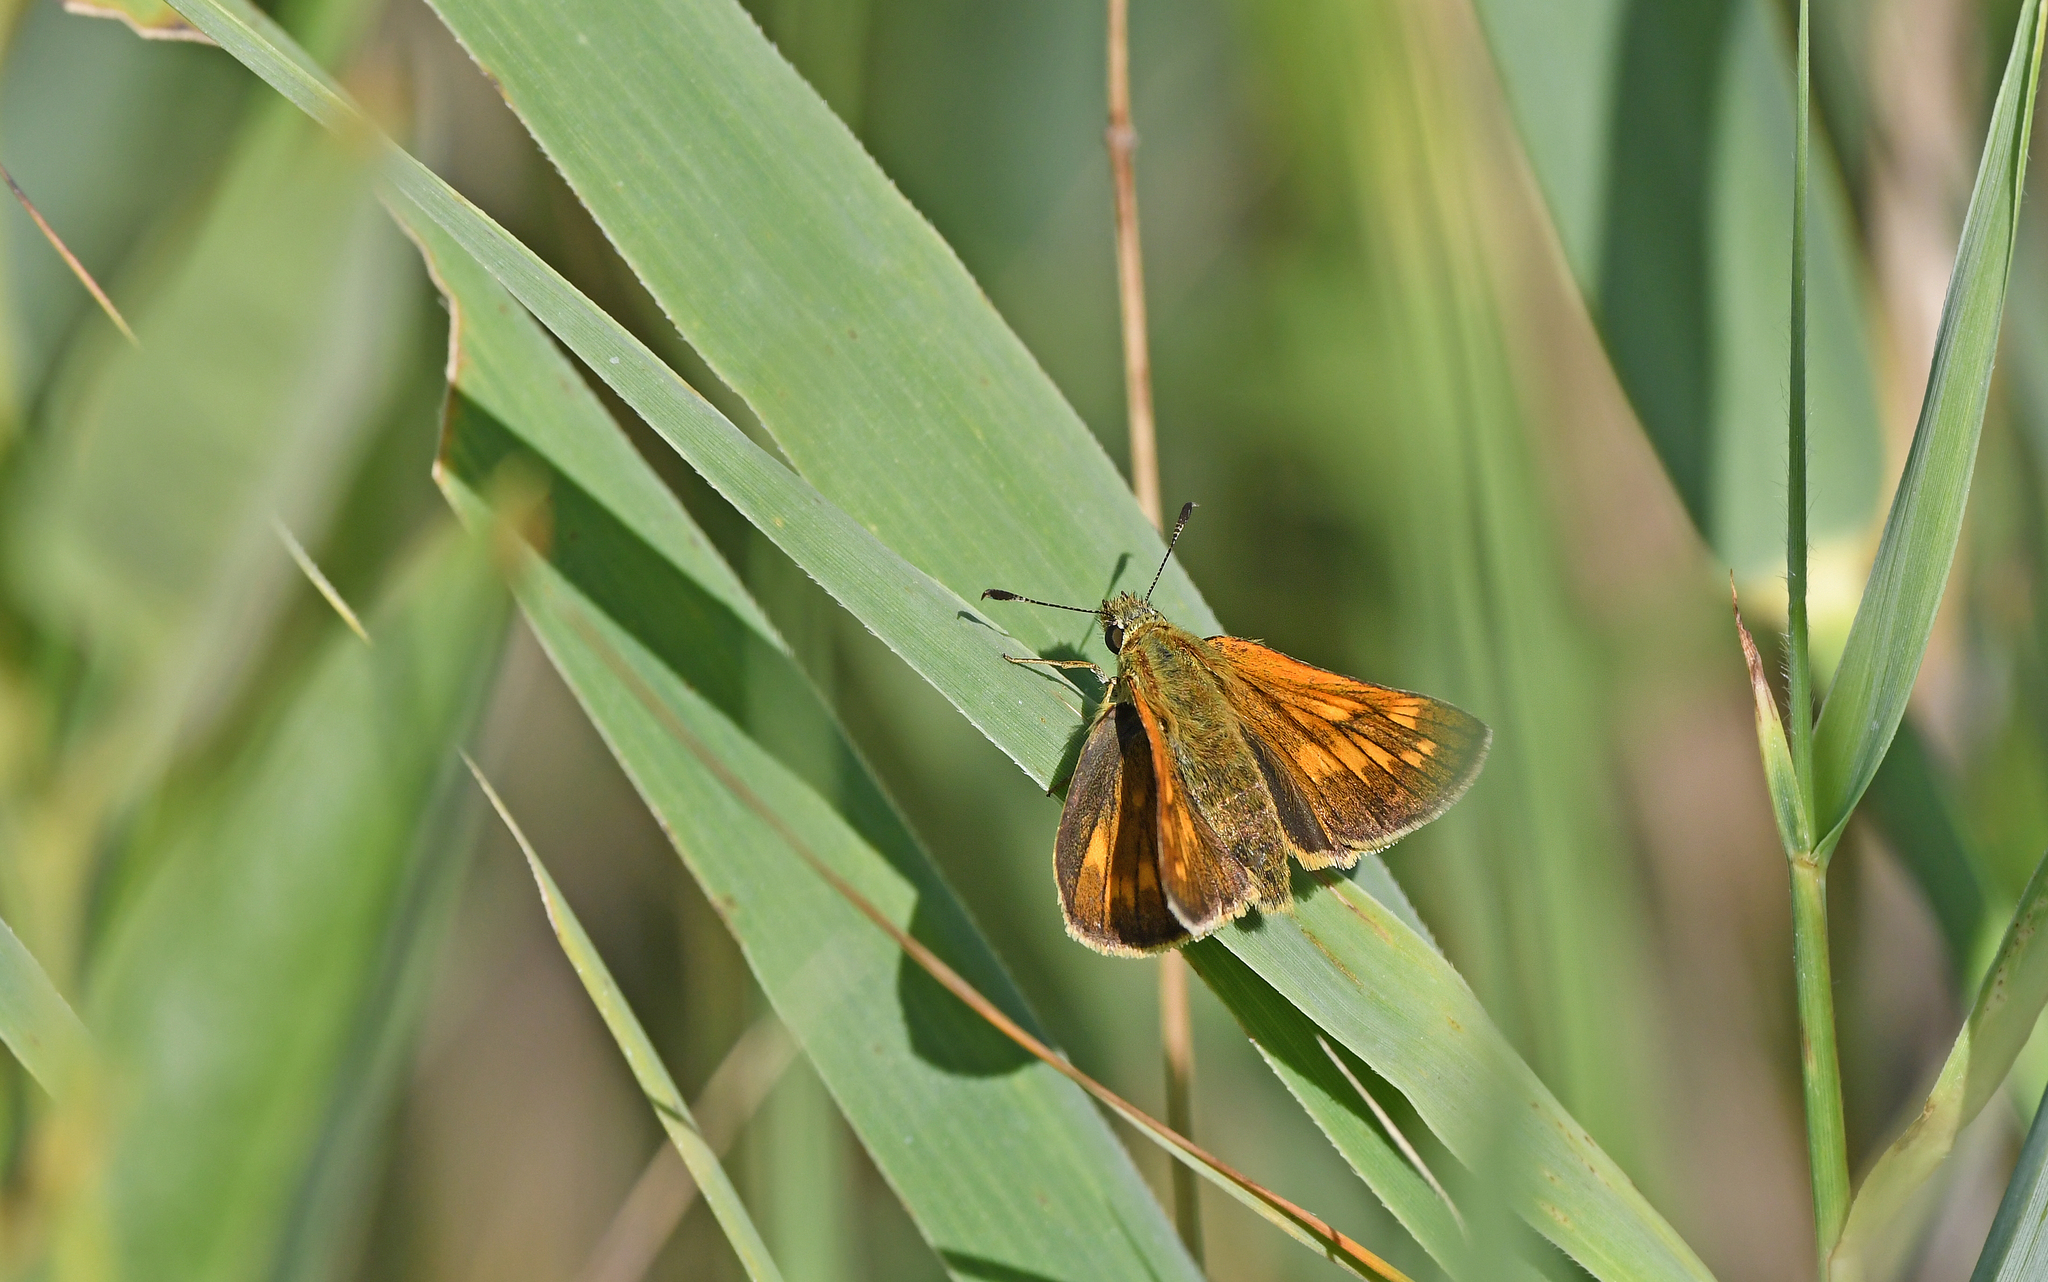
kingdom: Animalia
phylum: Arthropoda
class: Insecta
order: Lepidoptera
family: Hesperiidae
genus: Ochlodes
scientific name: Ochlodes venata
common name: Large skipper
